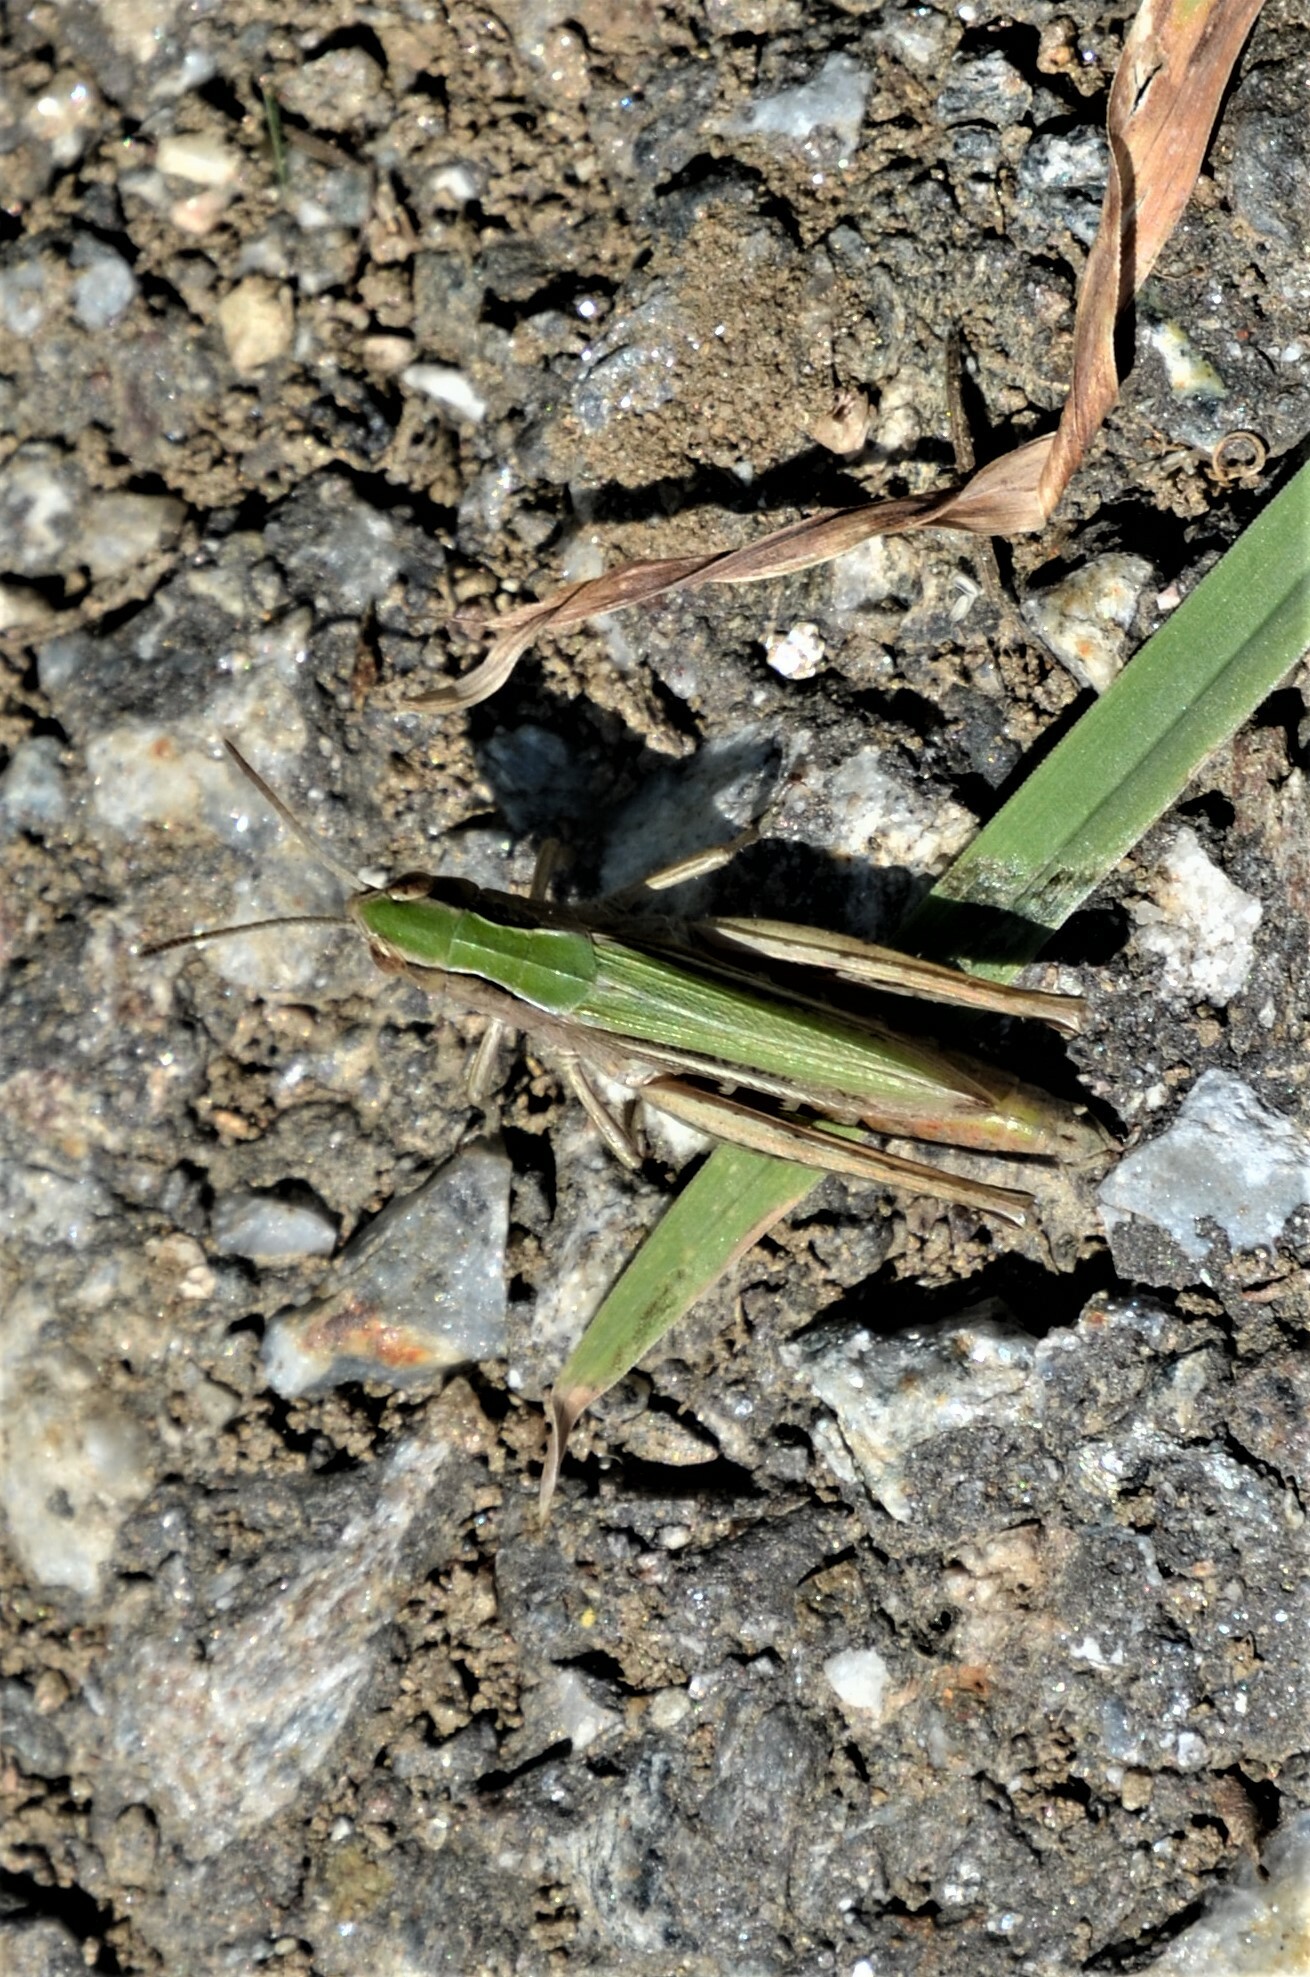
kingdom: Animalia
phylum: Arthropoda
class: Insecta
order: Orthoptera
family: Acrididae
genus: Chorthippus
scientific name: Chorthippus dorsatus
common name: Steppe grasshopper
